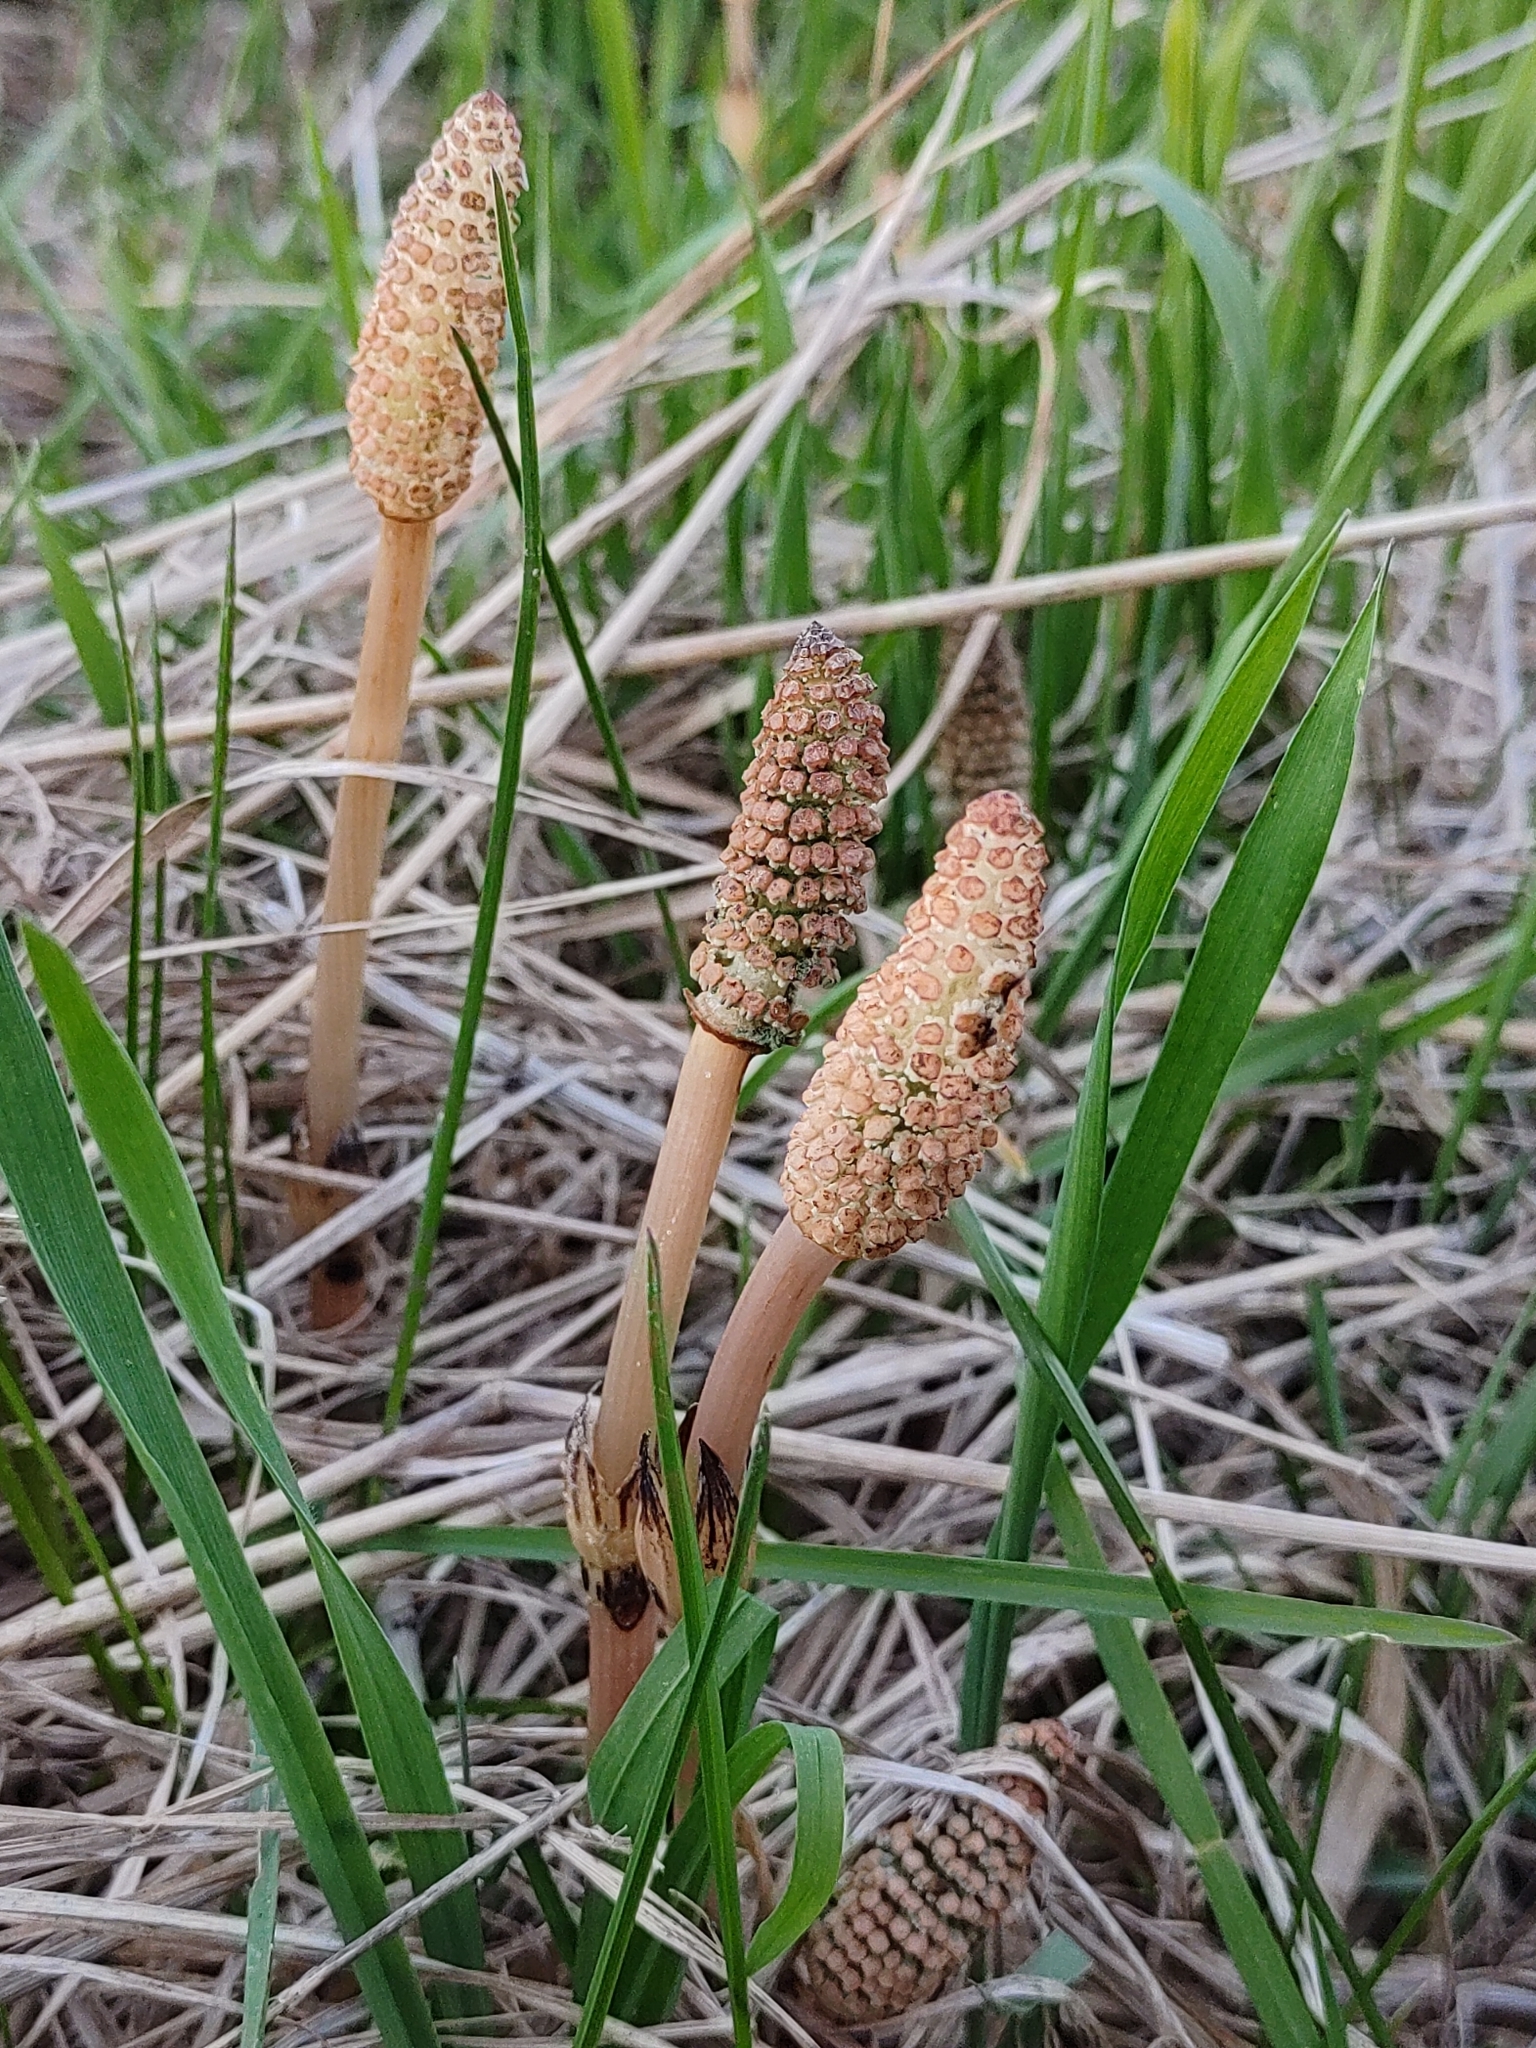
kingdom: Plantae
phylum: Tracheophyta
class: Polypodiopsida
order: Equisetales
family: Equisetaceae
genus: Equisetum
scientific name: Equisetum arvense
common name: Field horsetail
